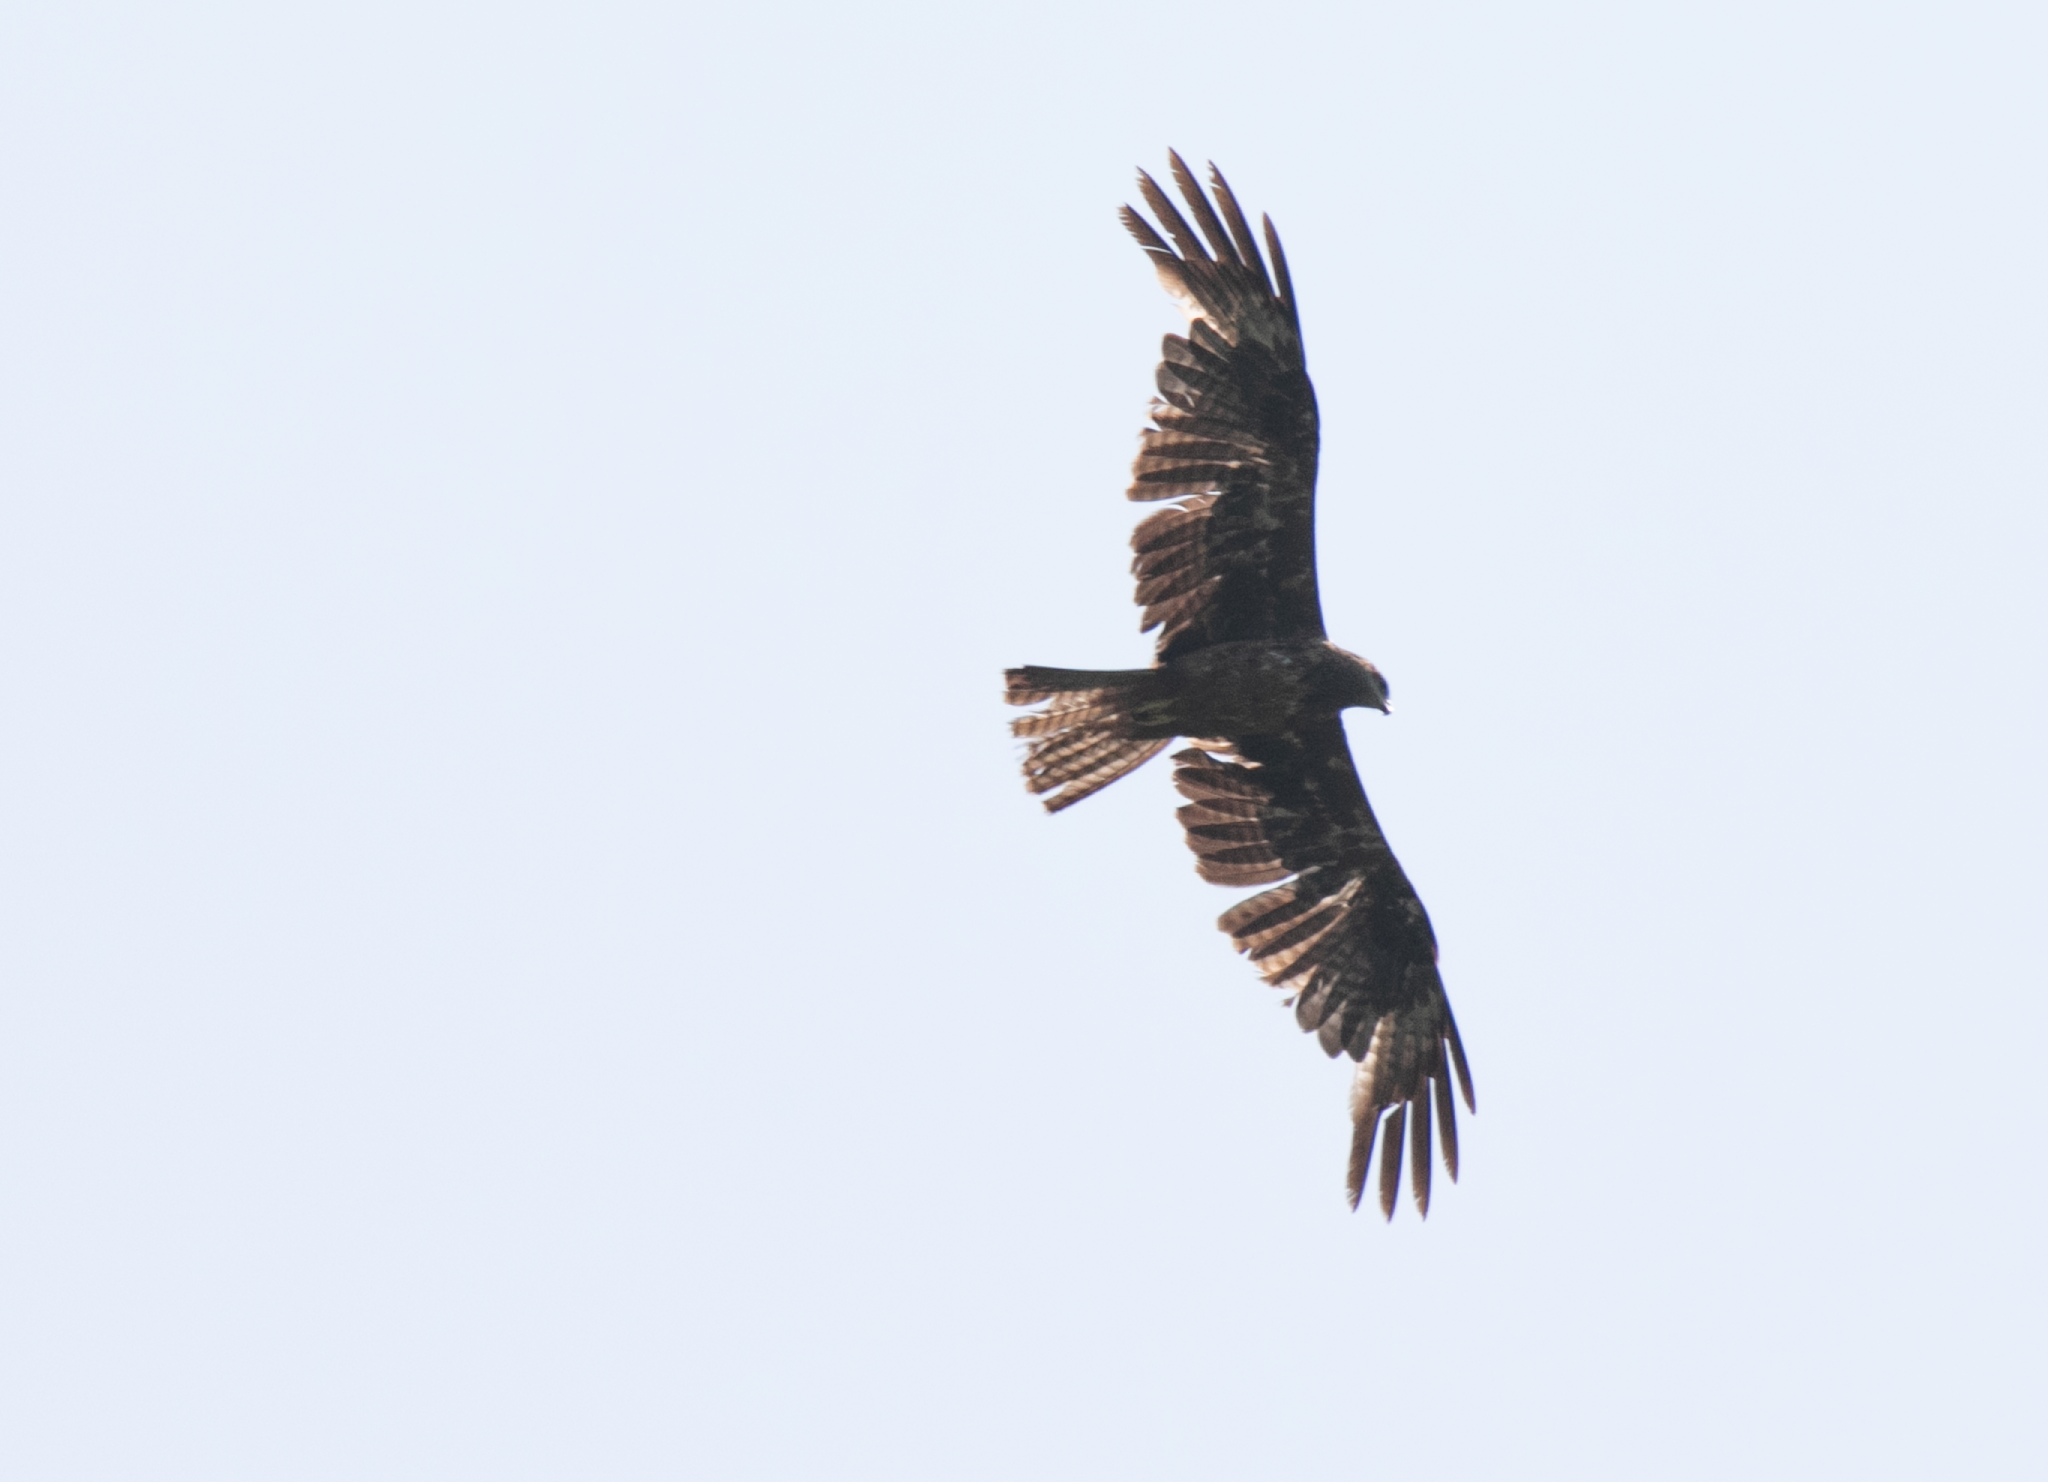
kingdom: Animalia
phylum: Chordata
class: Aves
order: Accipitriformes
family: Accipitridae
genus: Milvus
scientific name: Milvus migrans
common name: Black kite
